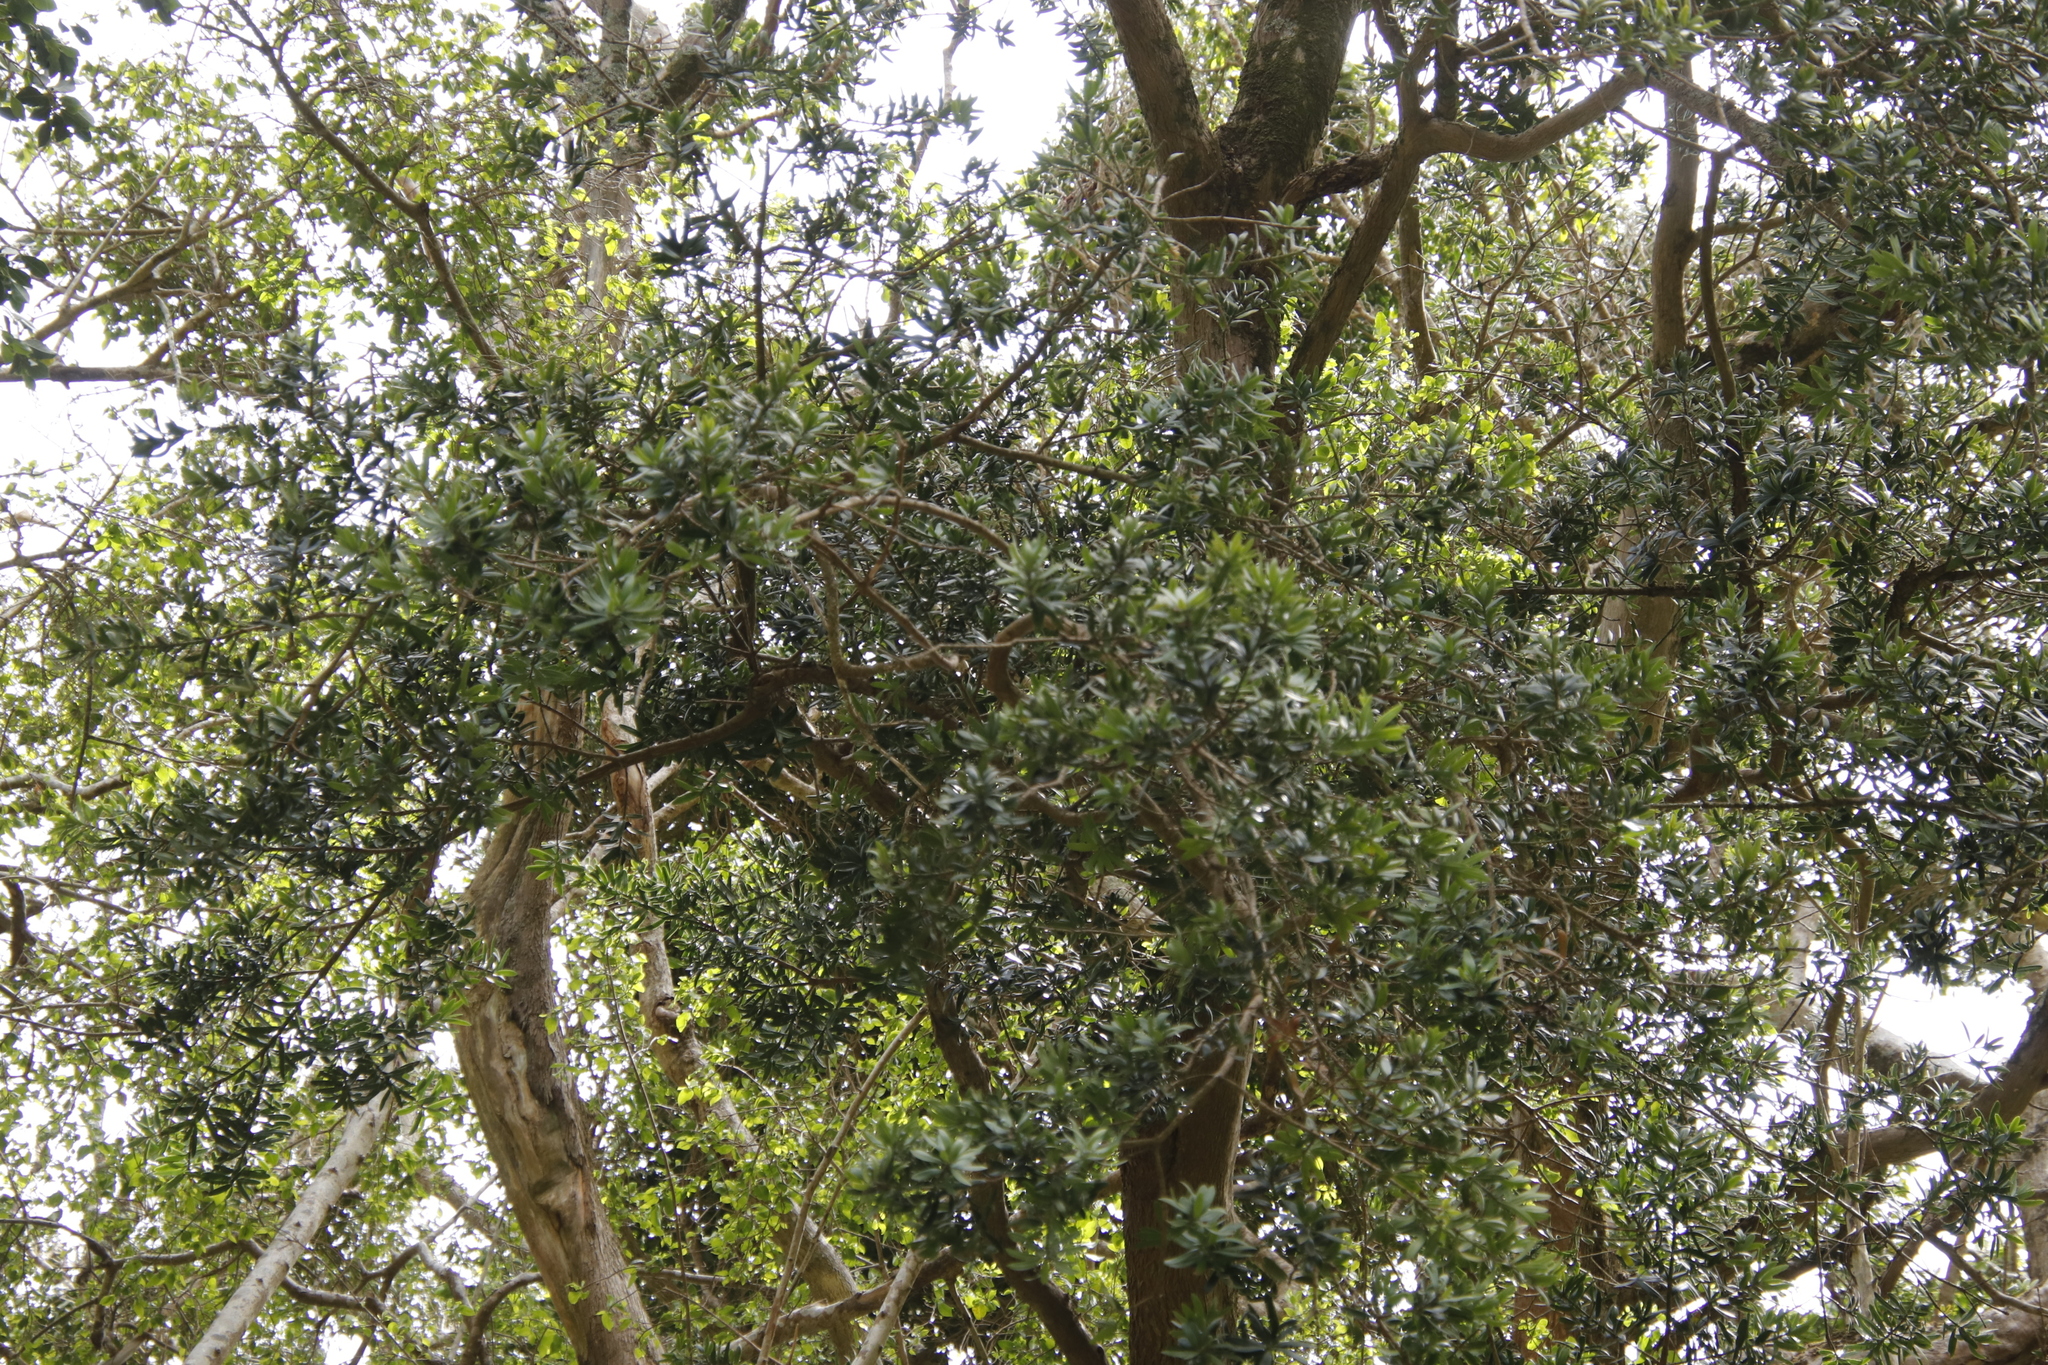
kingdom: Plantae
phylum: Tracheophyta
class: Pinopsida
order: Pinales
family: Podocarpaceae
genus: Podocarpus
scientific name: Podocarpus latifolius
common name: True yellowwood
